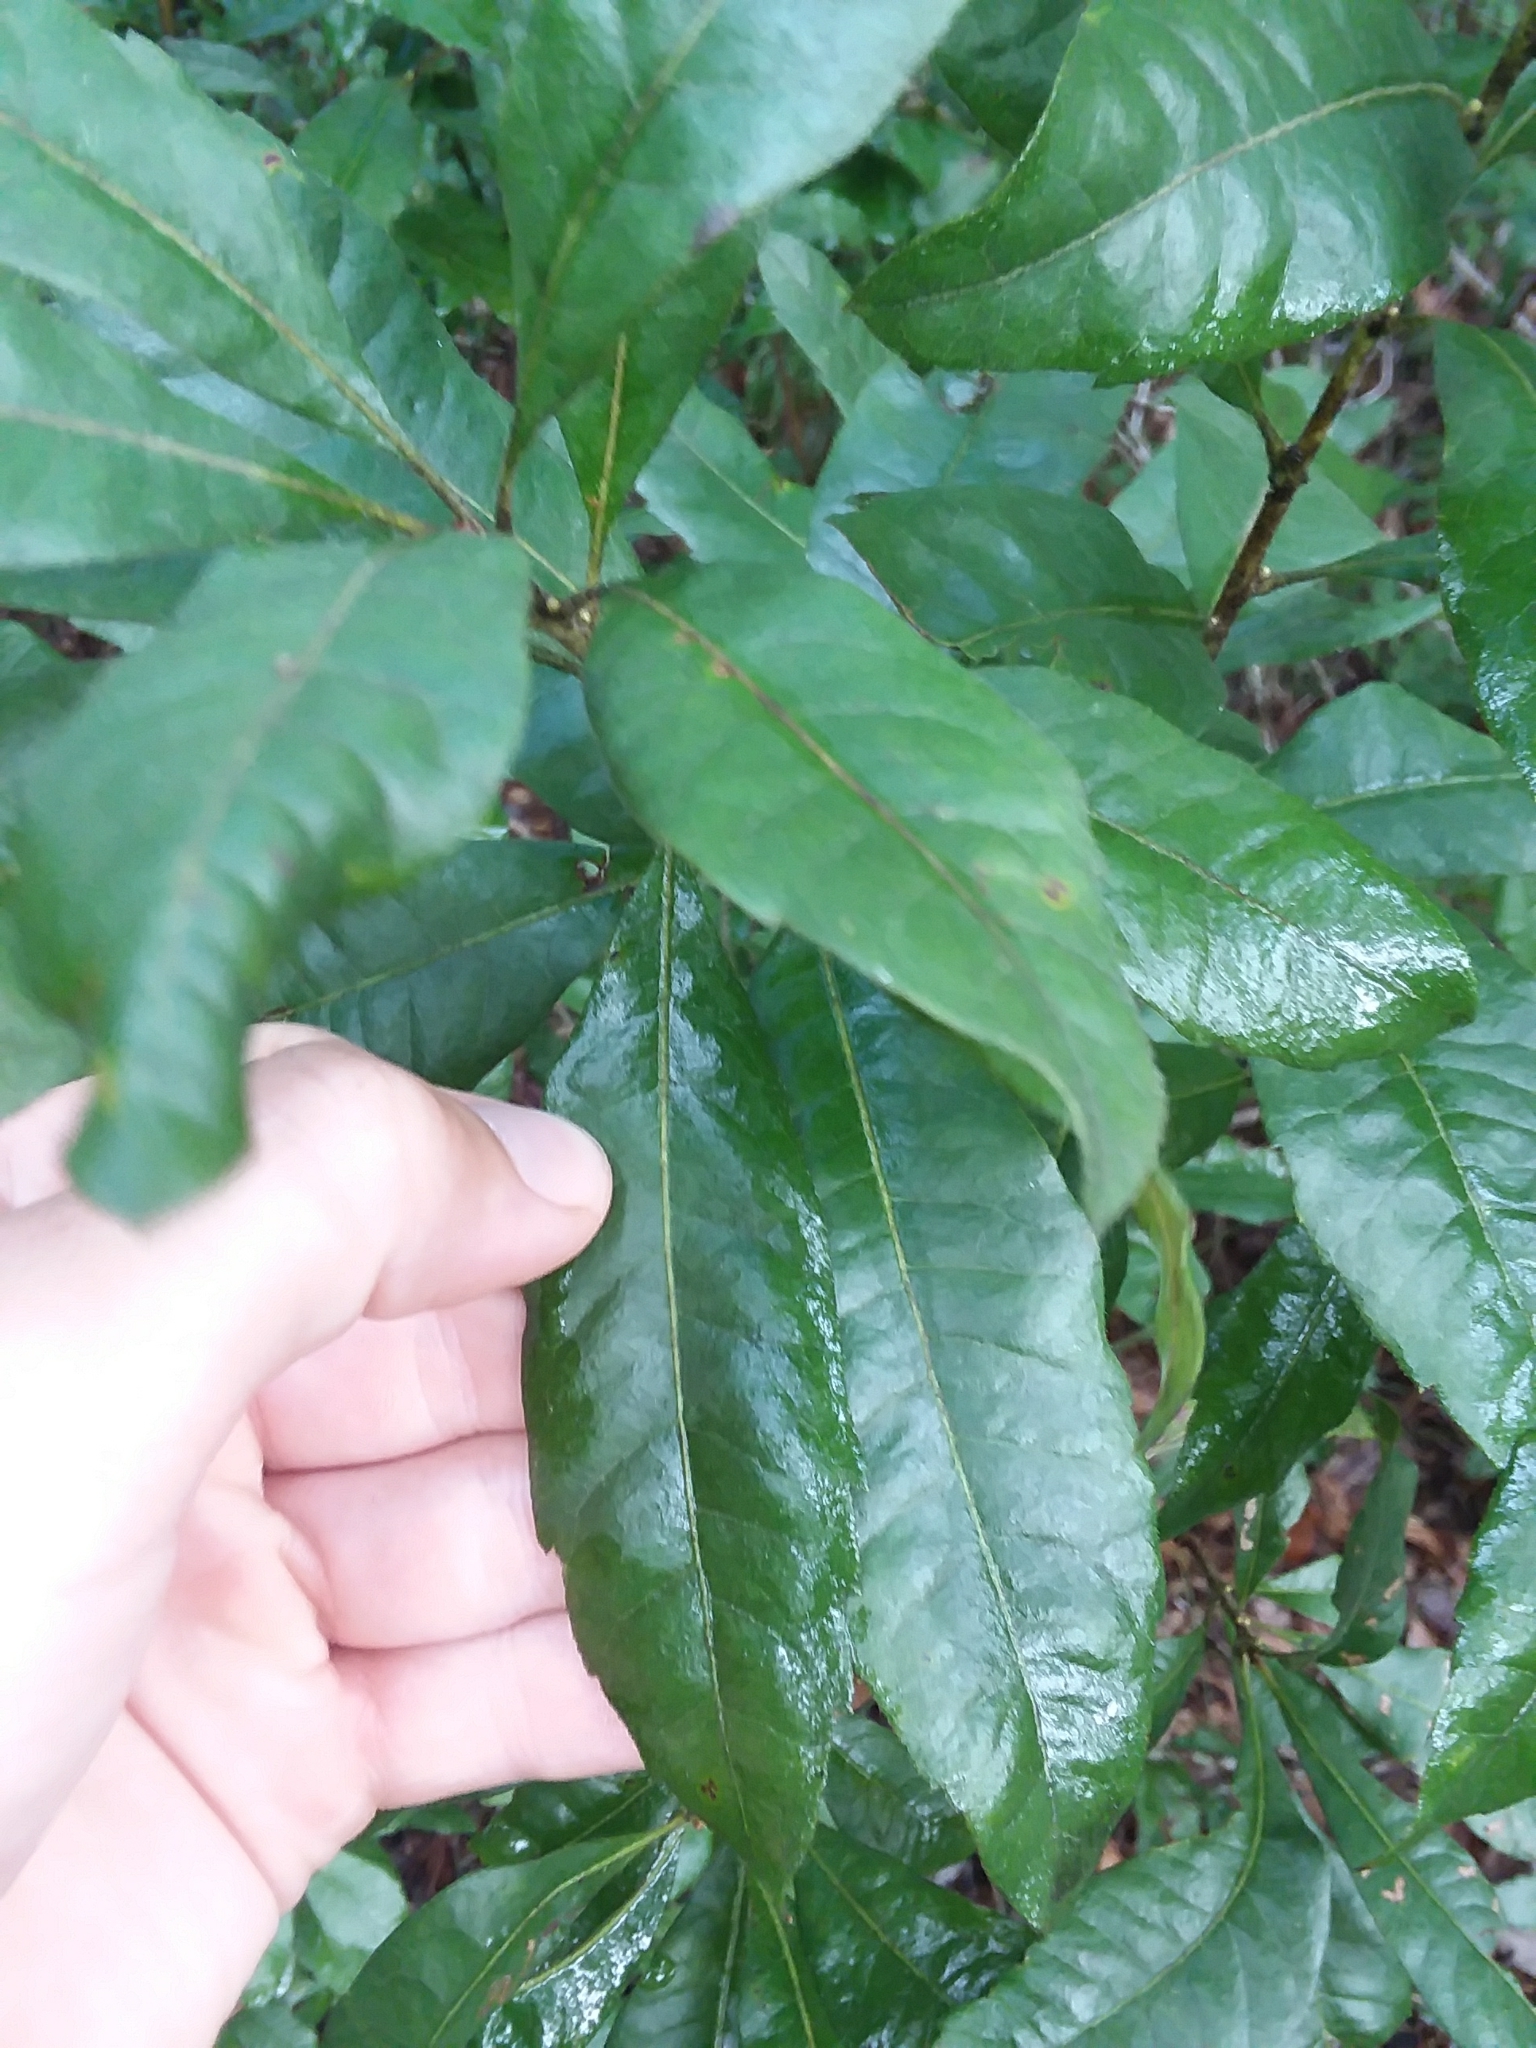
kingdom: Plantae
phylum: Tracheophyta
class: Magnoliopsida
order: Fagales
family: Myricaceae
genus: Morella
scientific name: Morella caroliniensis
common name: Evergreen bayberry
